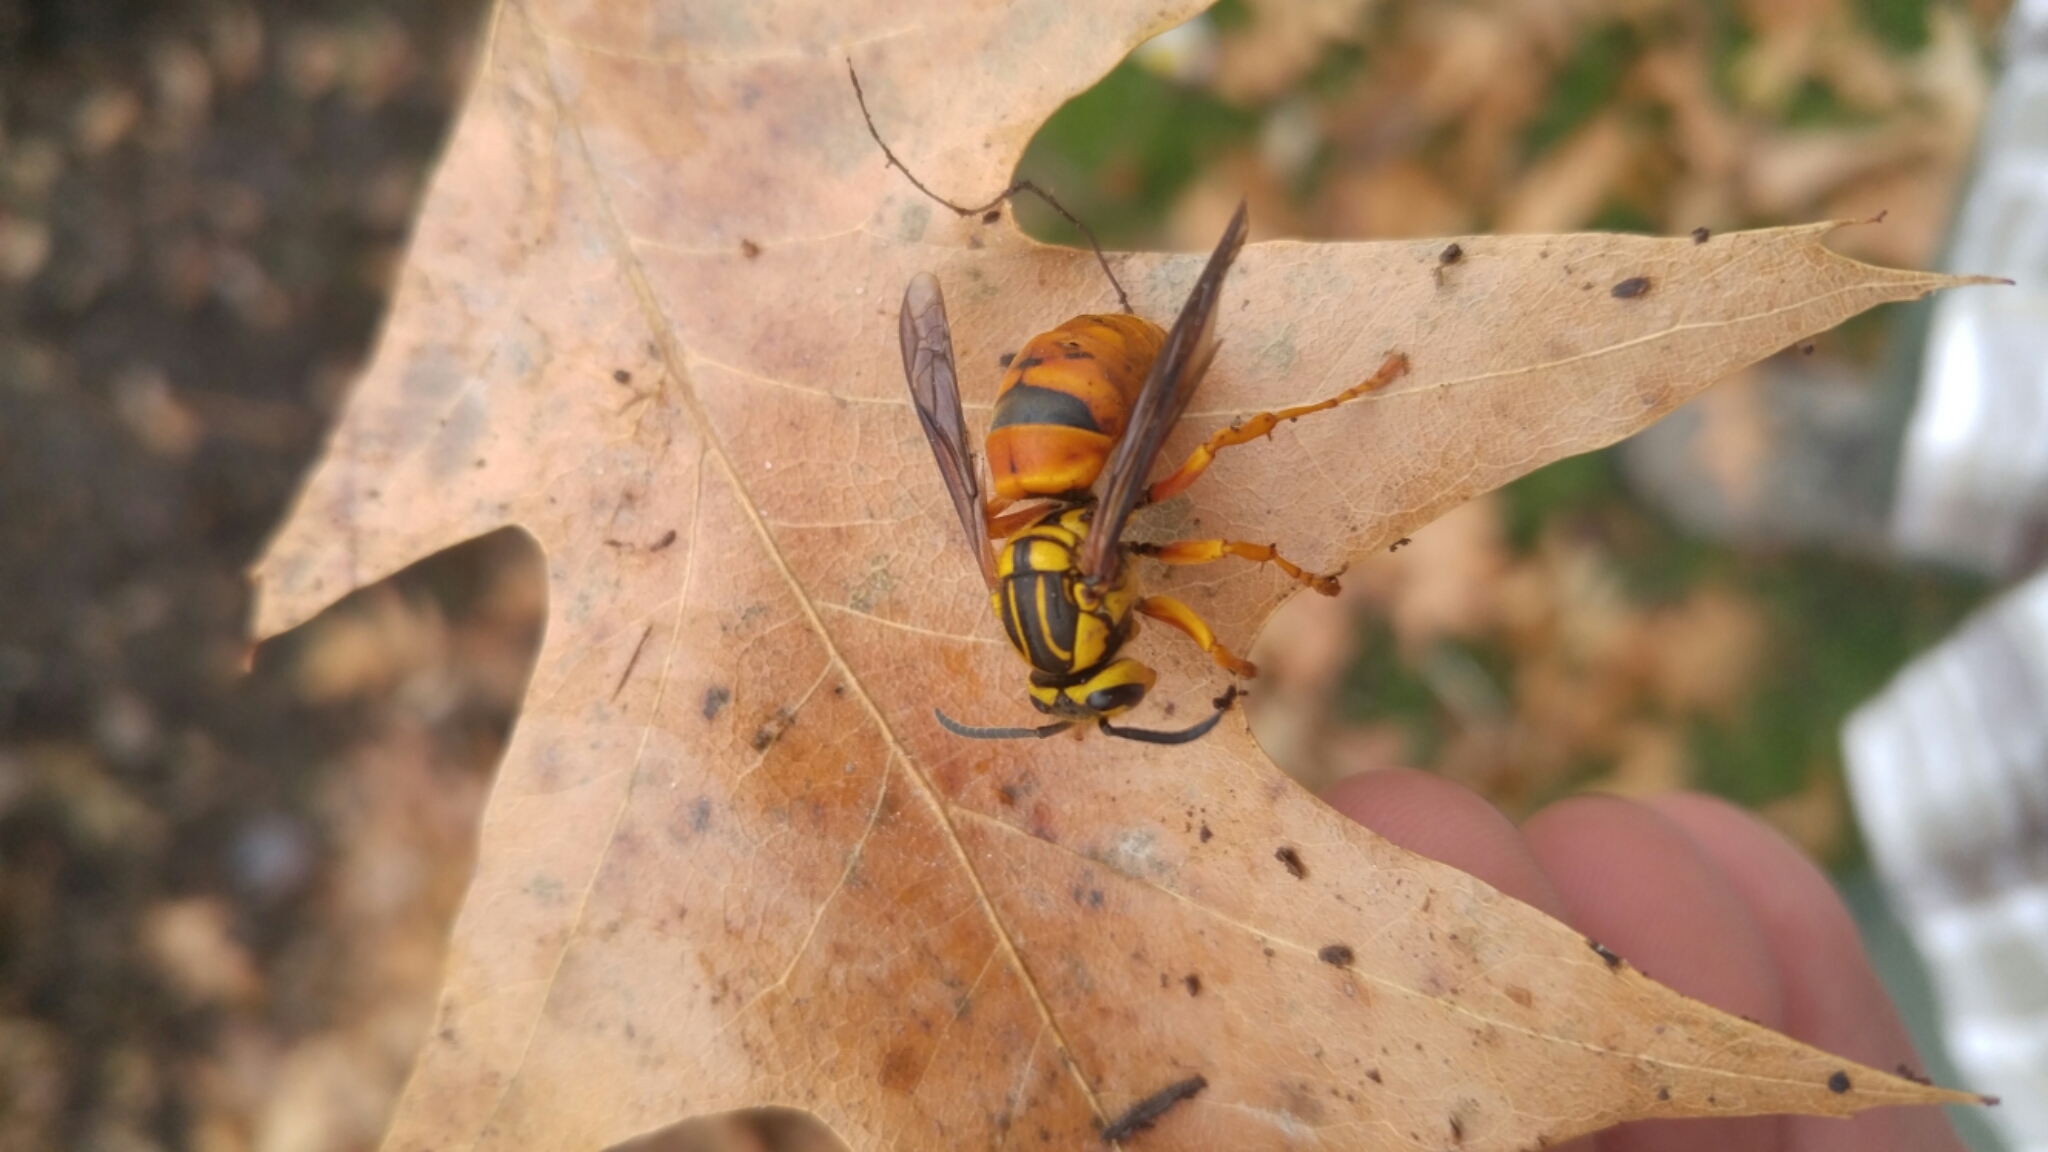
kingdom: Animalia
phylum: Arthropoda
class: Insecta
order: Hymenoptera
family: Vespidae
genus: Vespula
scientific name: Vespula squamosa
